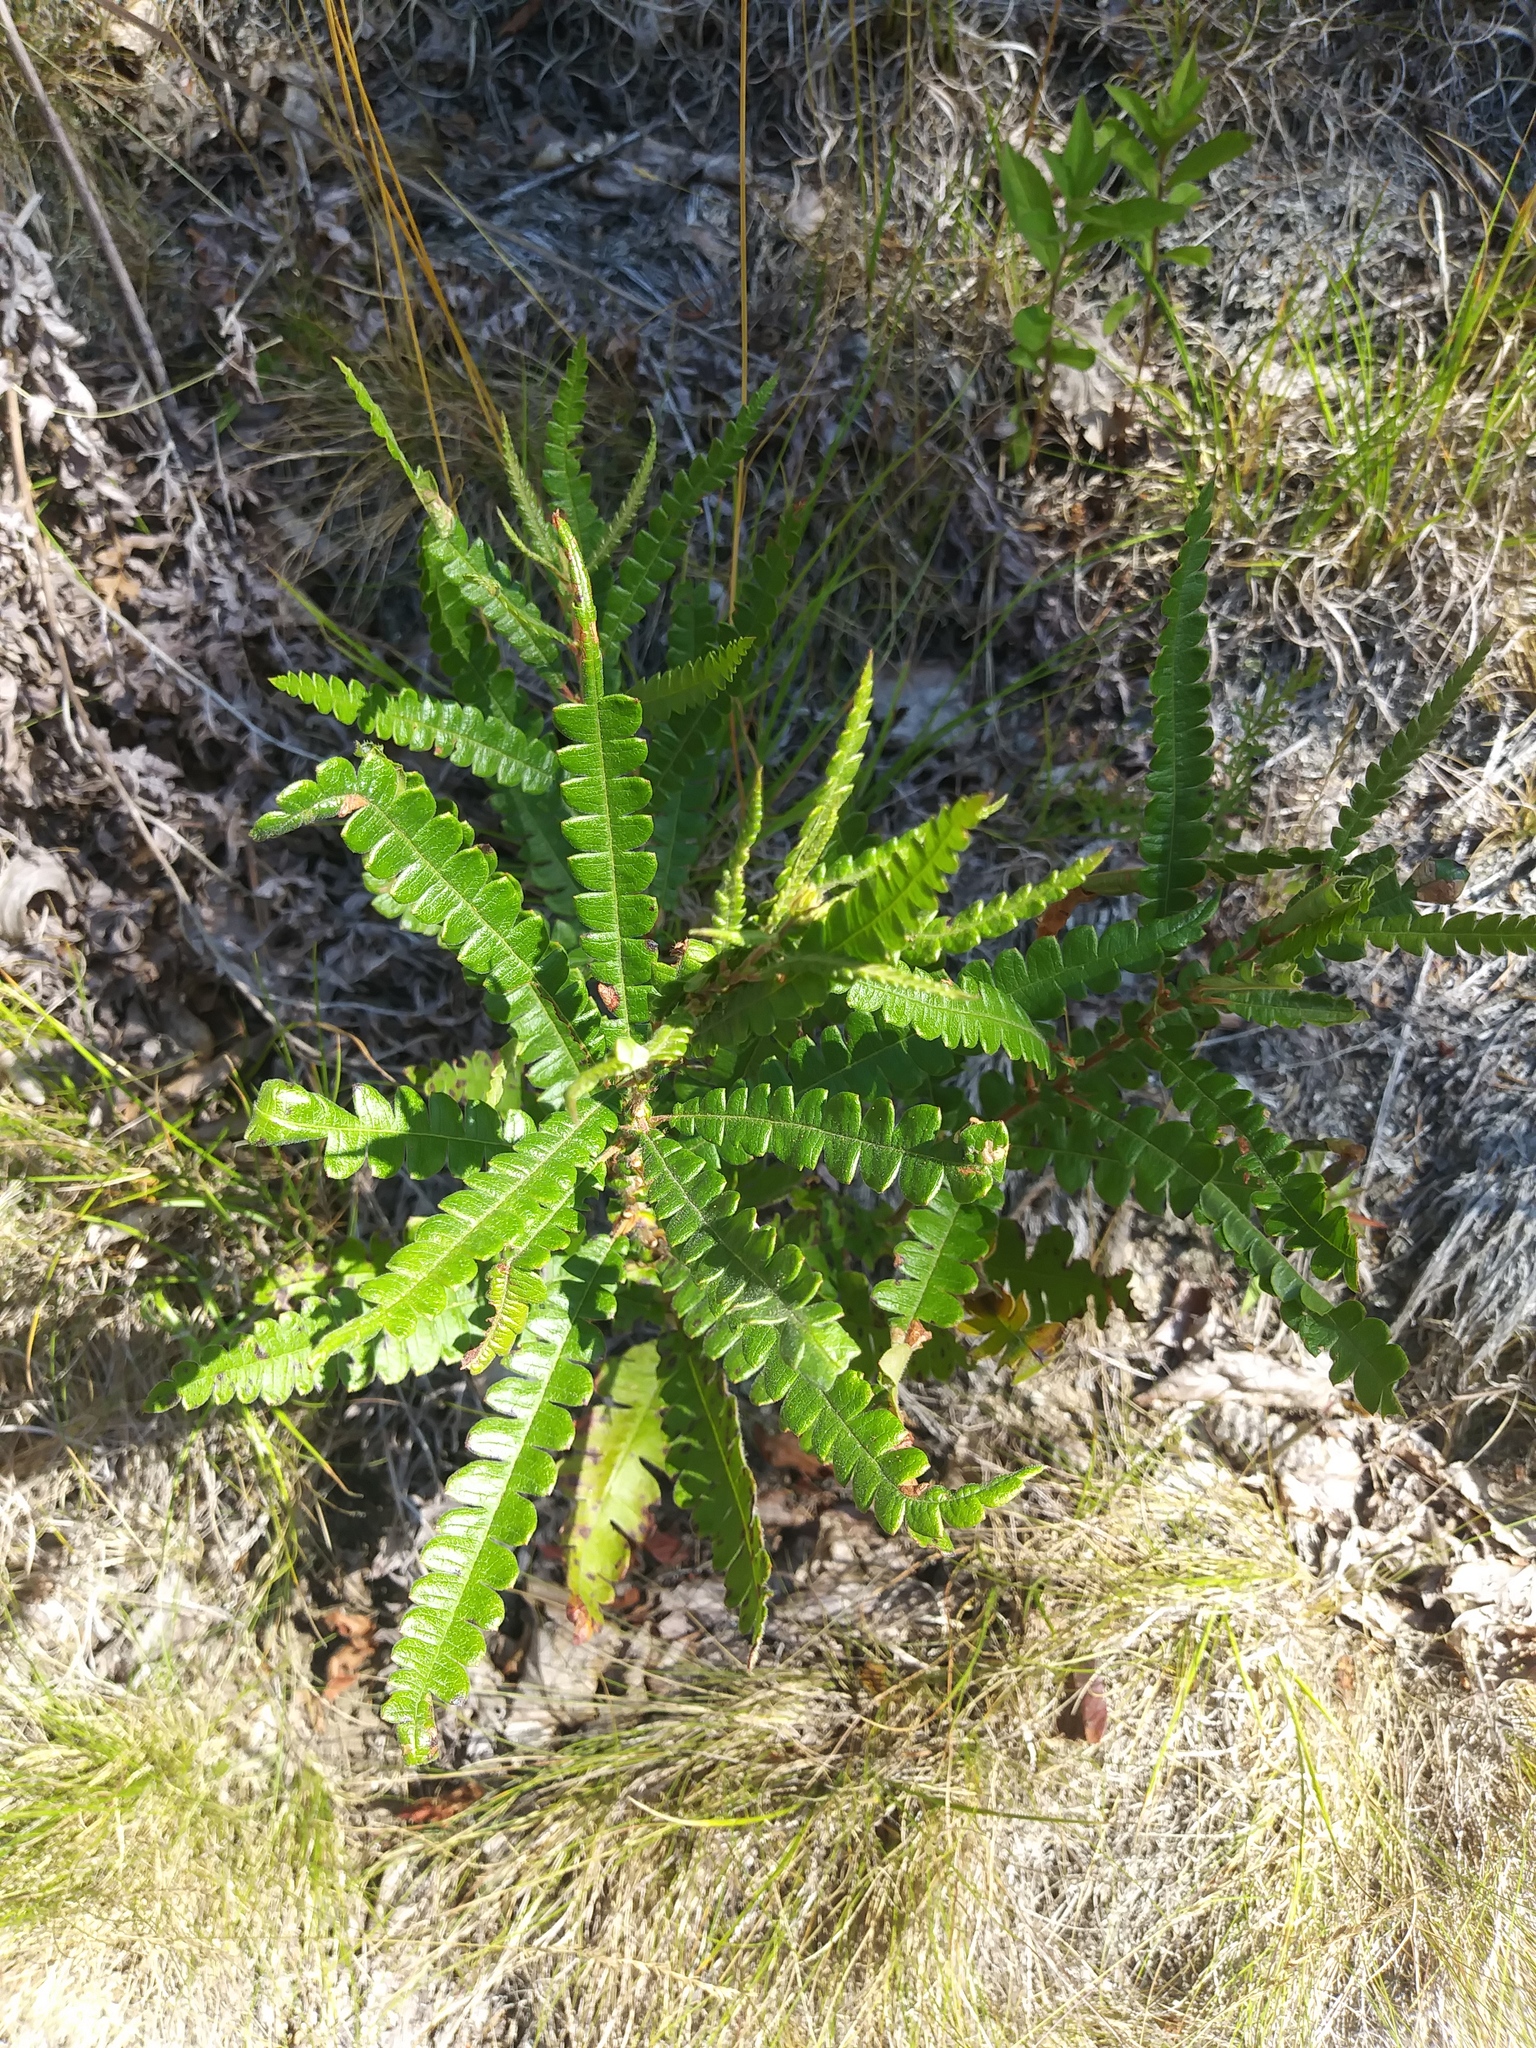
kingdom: Plantae
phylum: Tracheophyta
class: Magnoliopsida
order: Fagales
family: Myricaceae
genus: Comptonia
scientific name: Comptonia peregrina
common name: Sweet-fern
